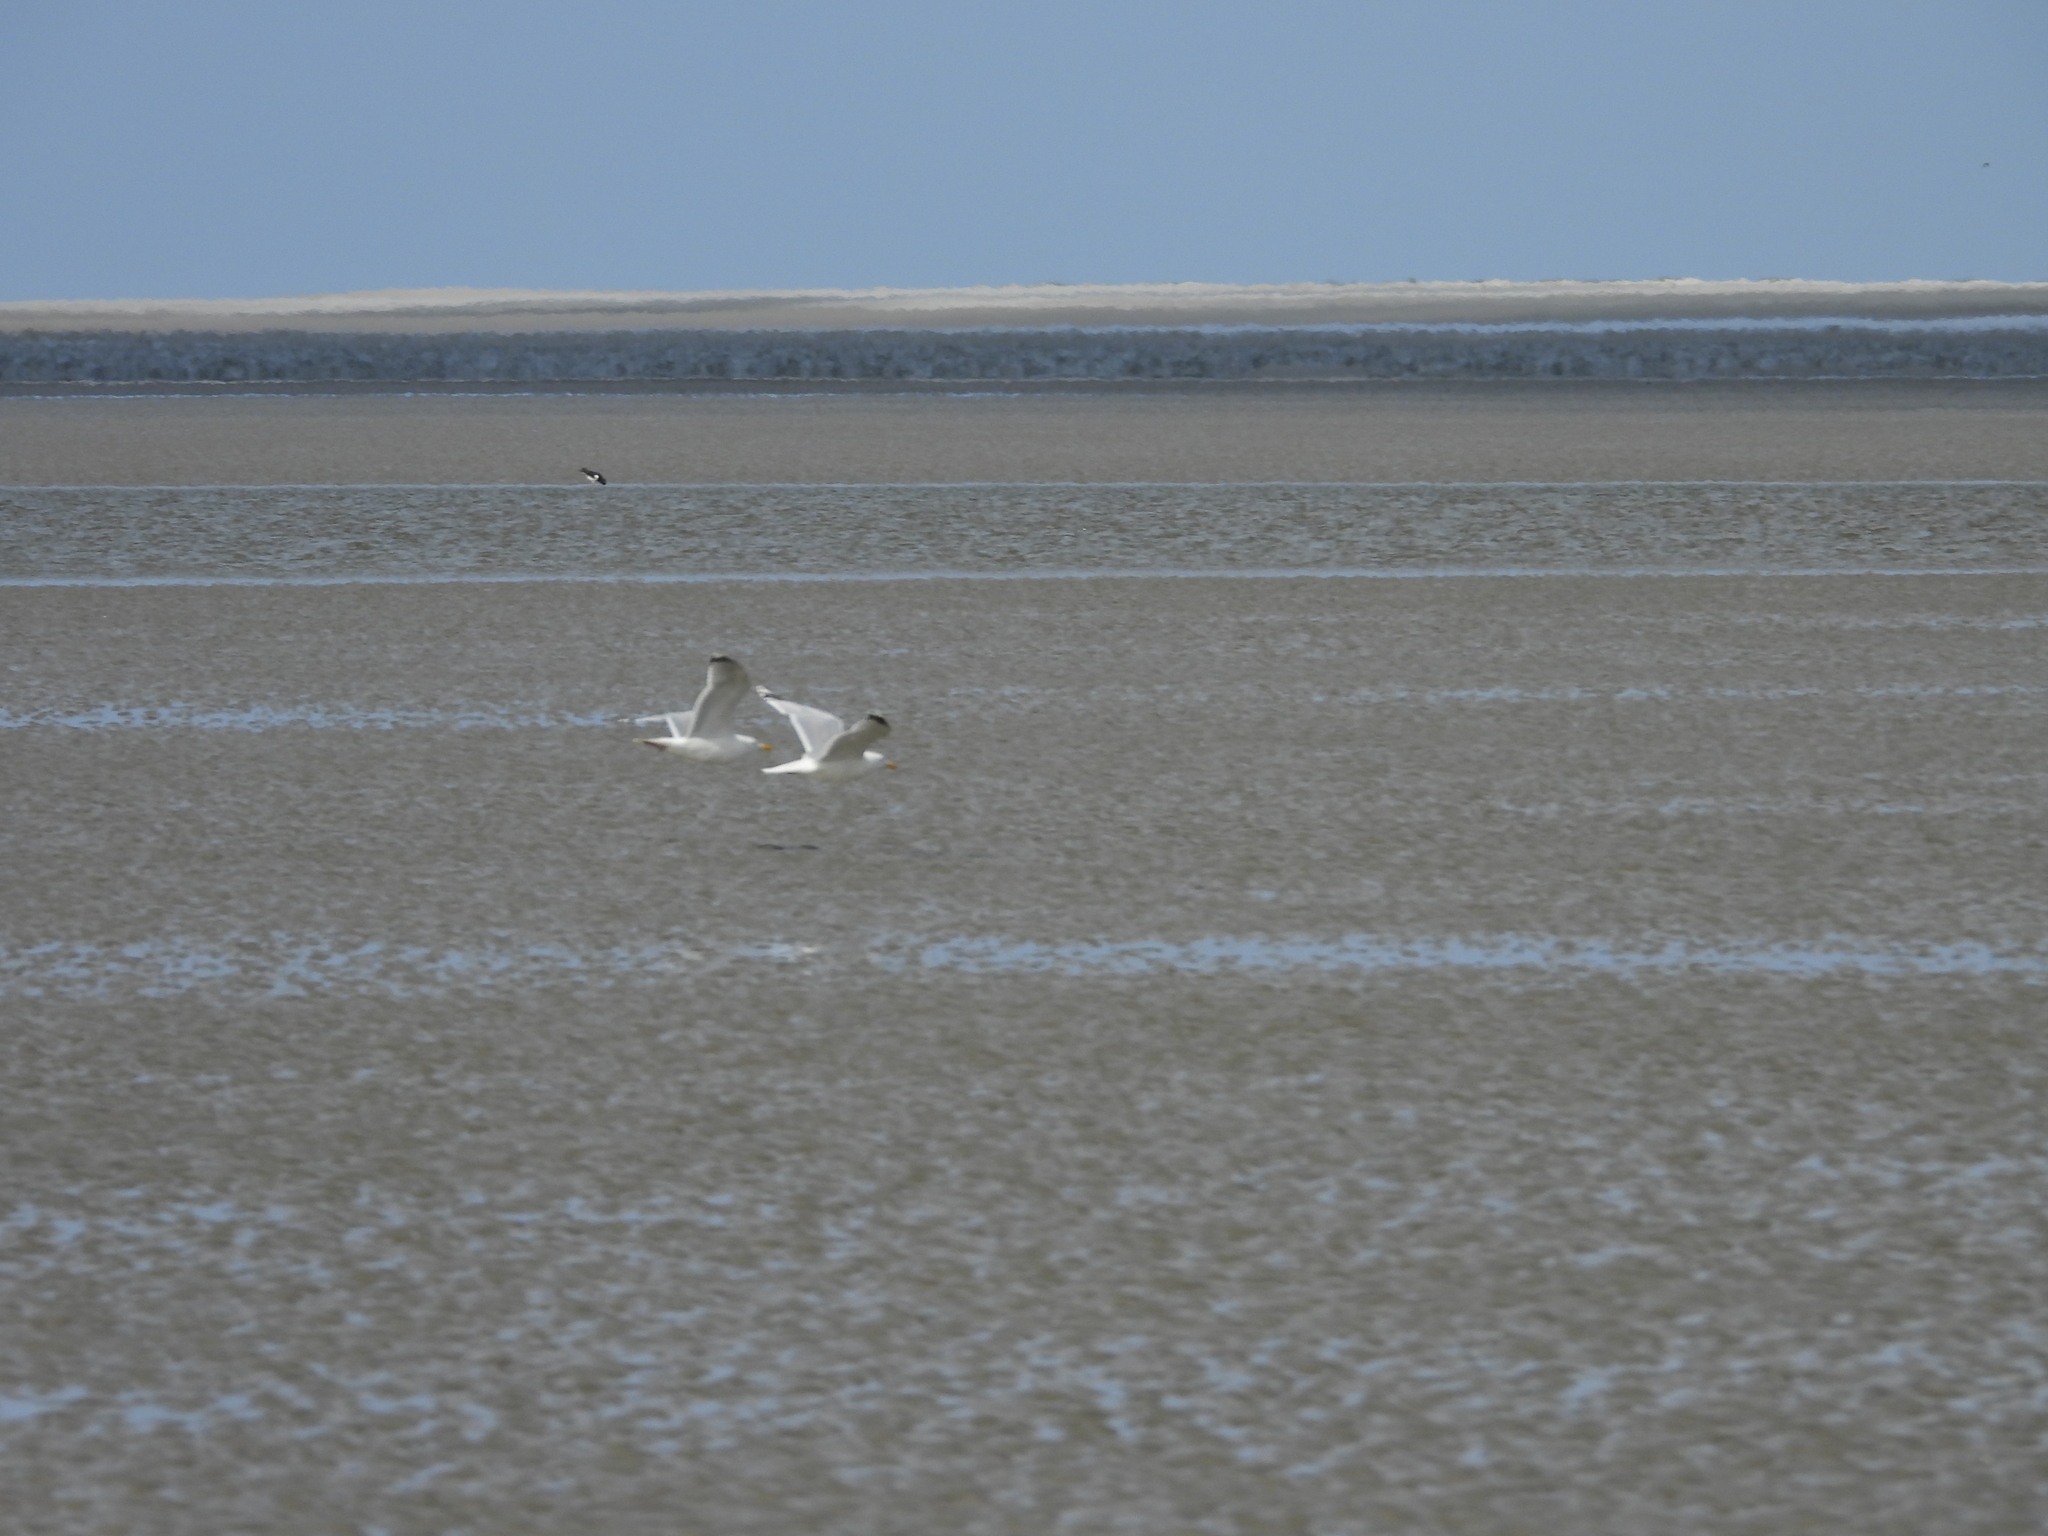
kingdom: Animalia
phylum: Chordata
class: Aves
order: Charadriiformes
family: Laridae
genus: Larus
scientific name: Larus argentatus
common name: Herring gull
